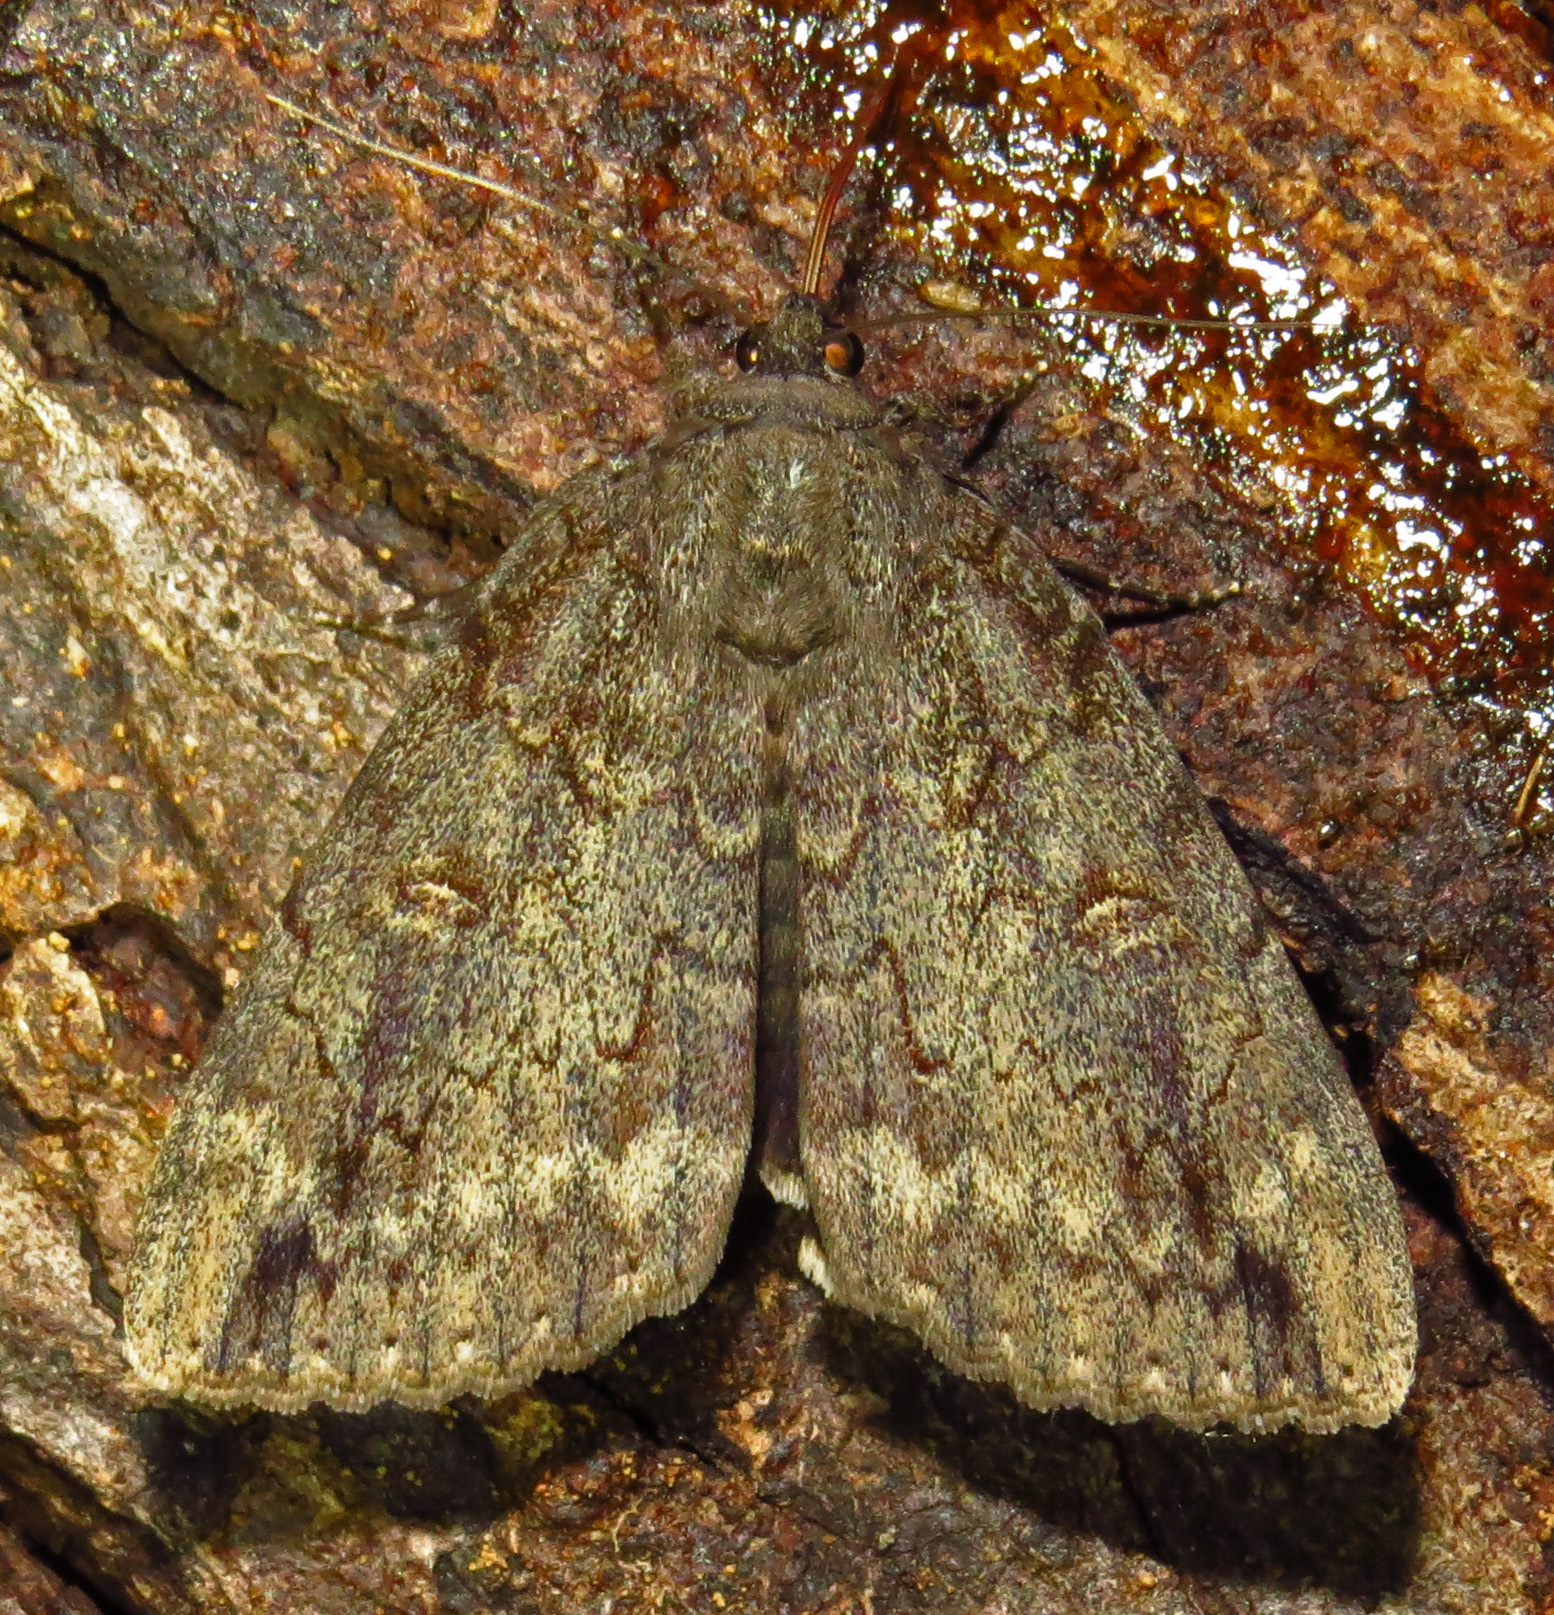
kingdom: Animalia
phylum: Arthropoda
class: Insecta
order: Lepidoptera
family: Erebidae
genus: Catocala
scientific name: Catocala residua
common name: Residua underwing
